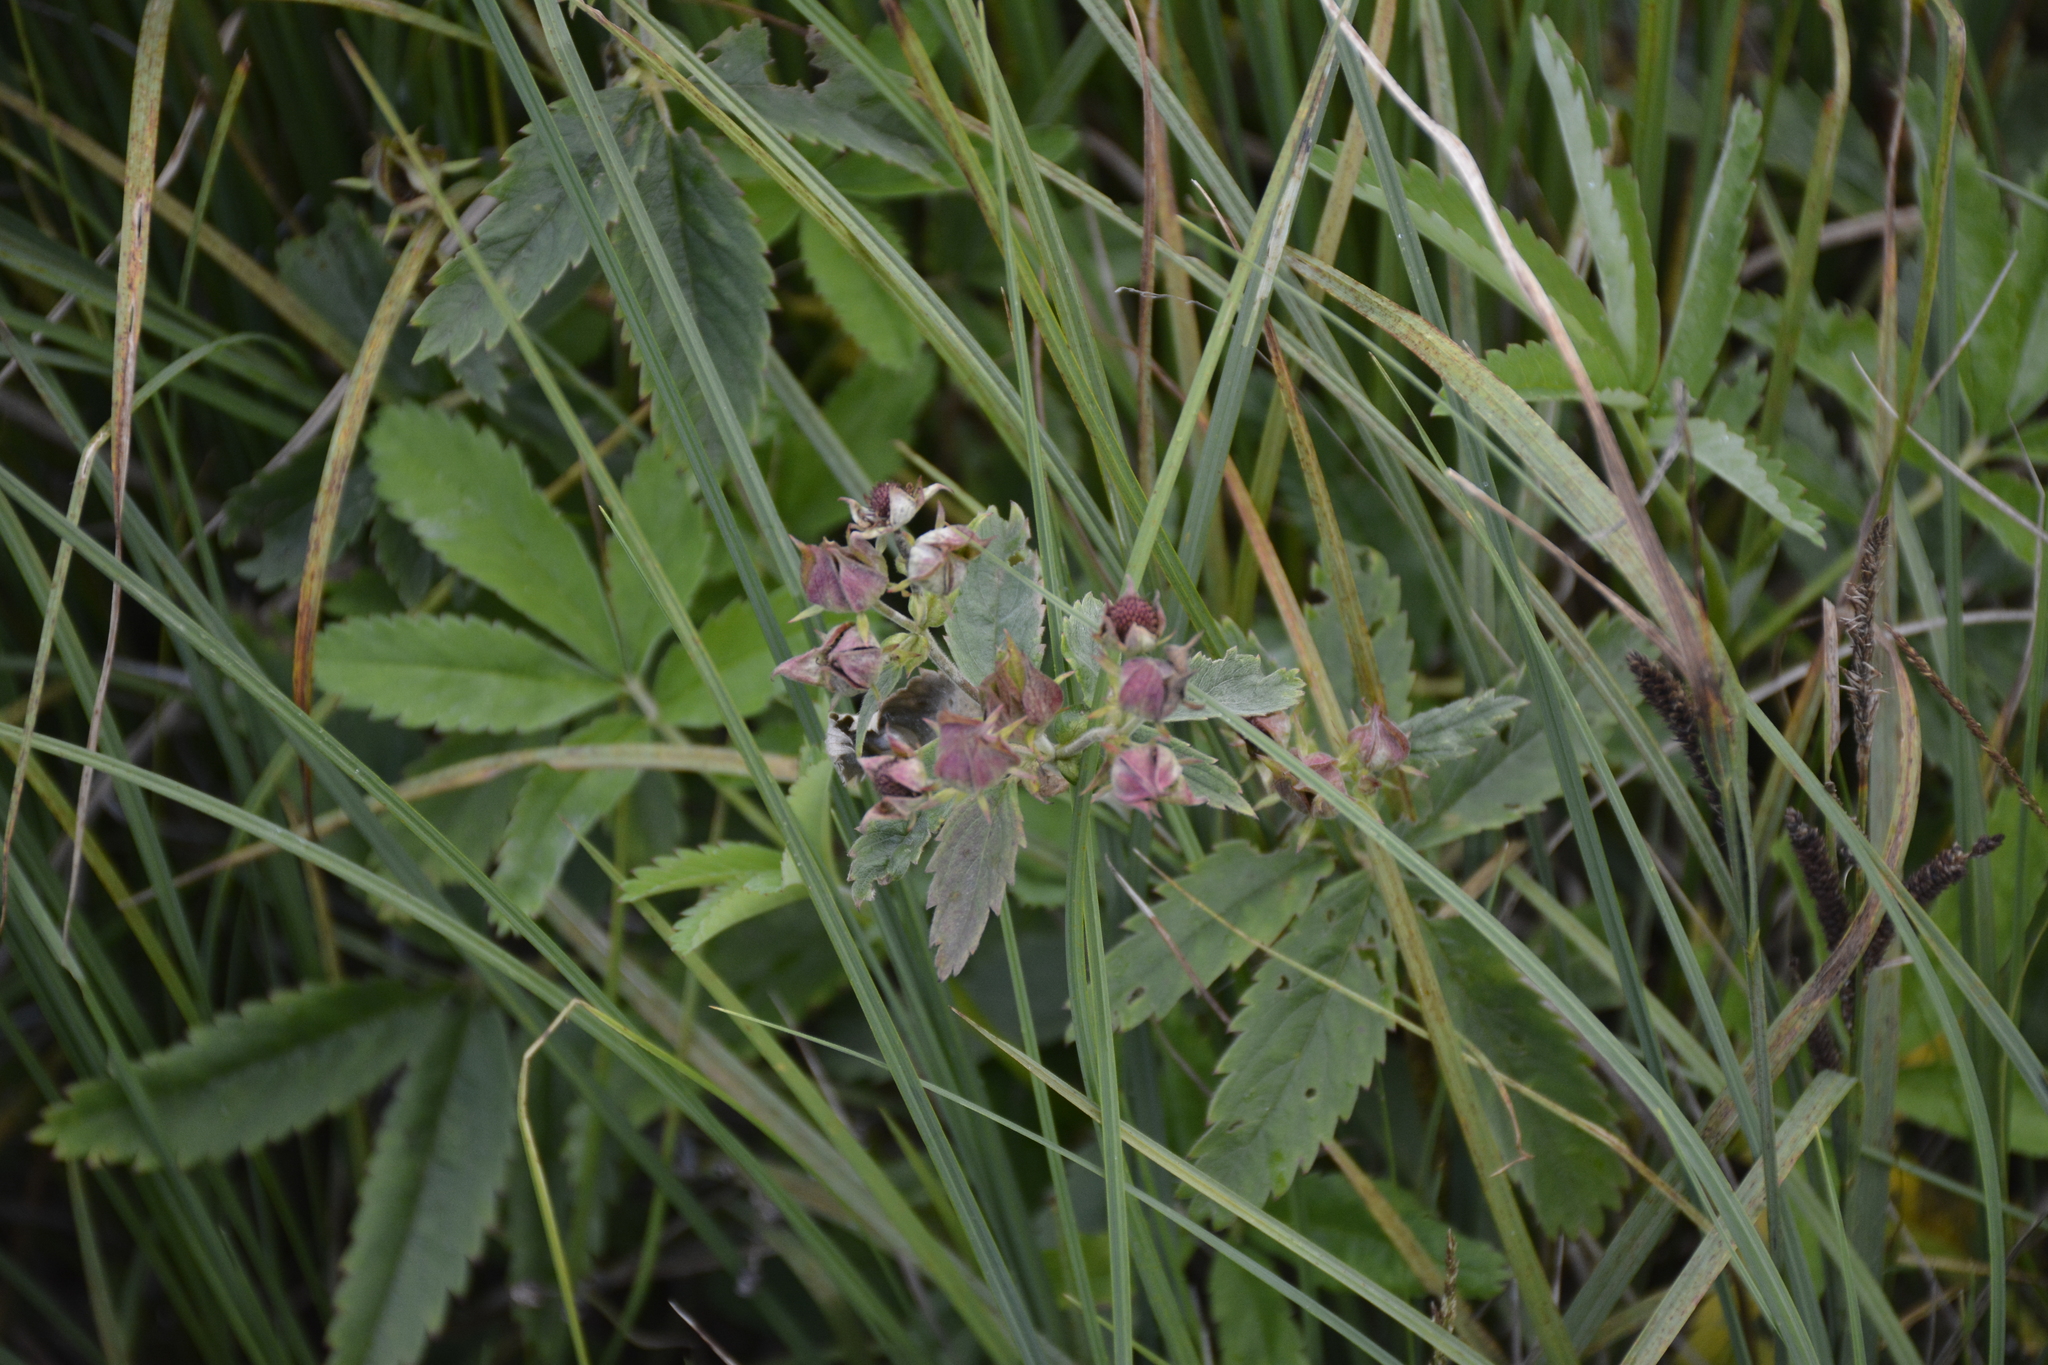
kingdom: Plantae
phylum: Tracheophyta
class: Magnoliopsida
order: Rosales
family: Rosaceae
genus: Comarum
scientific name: Comarum palustre
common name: Marsh cinquefoil
